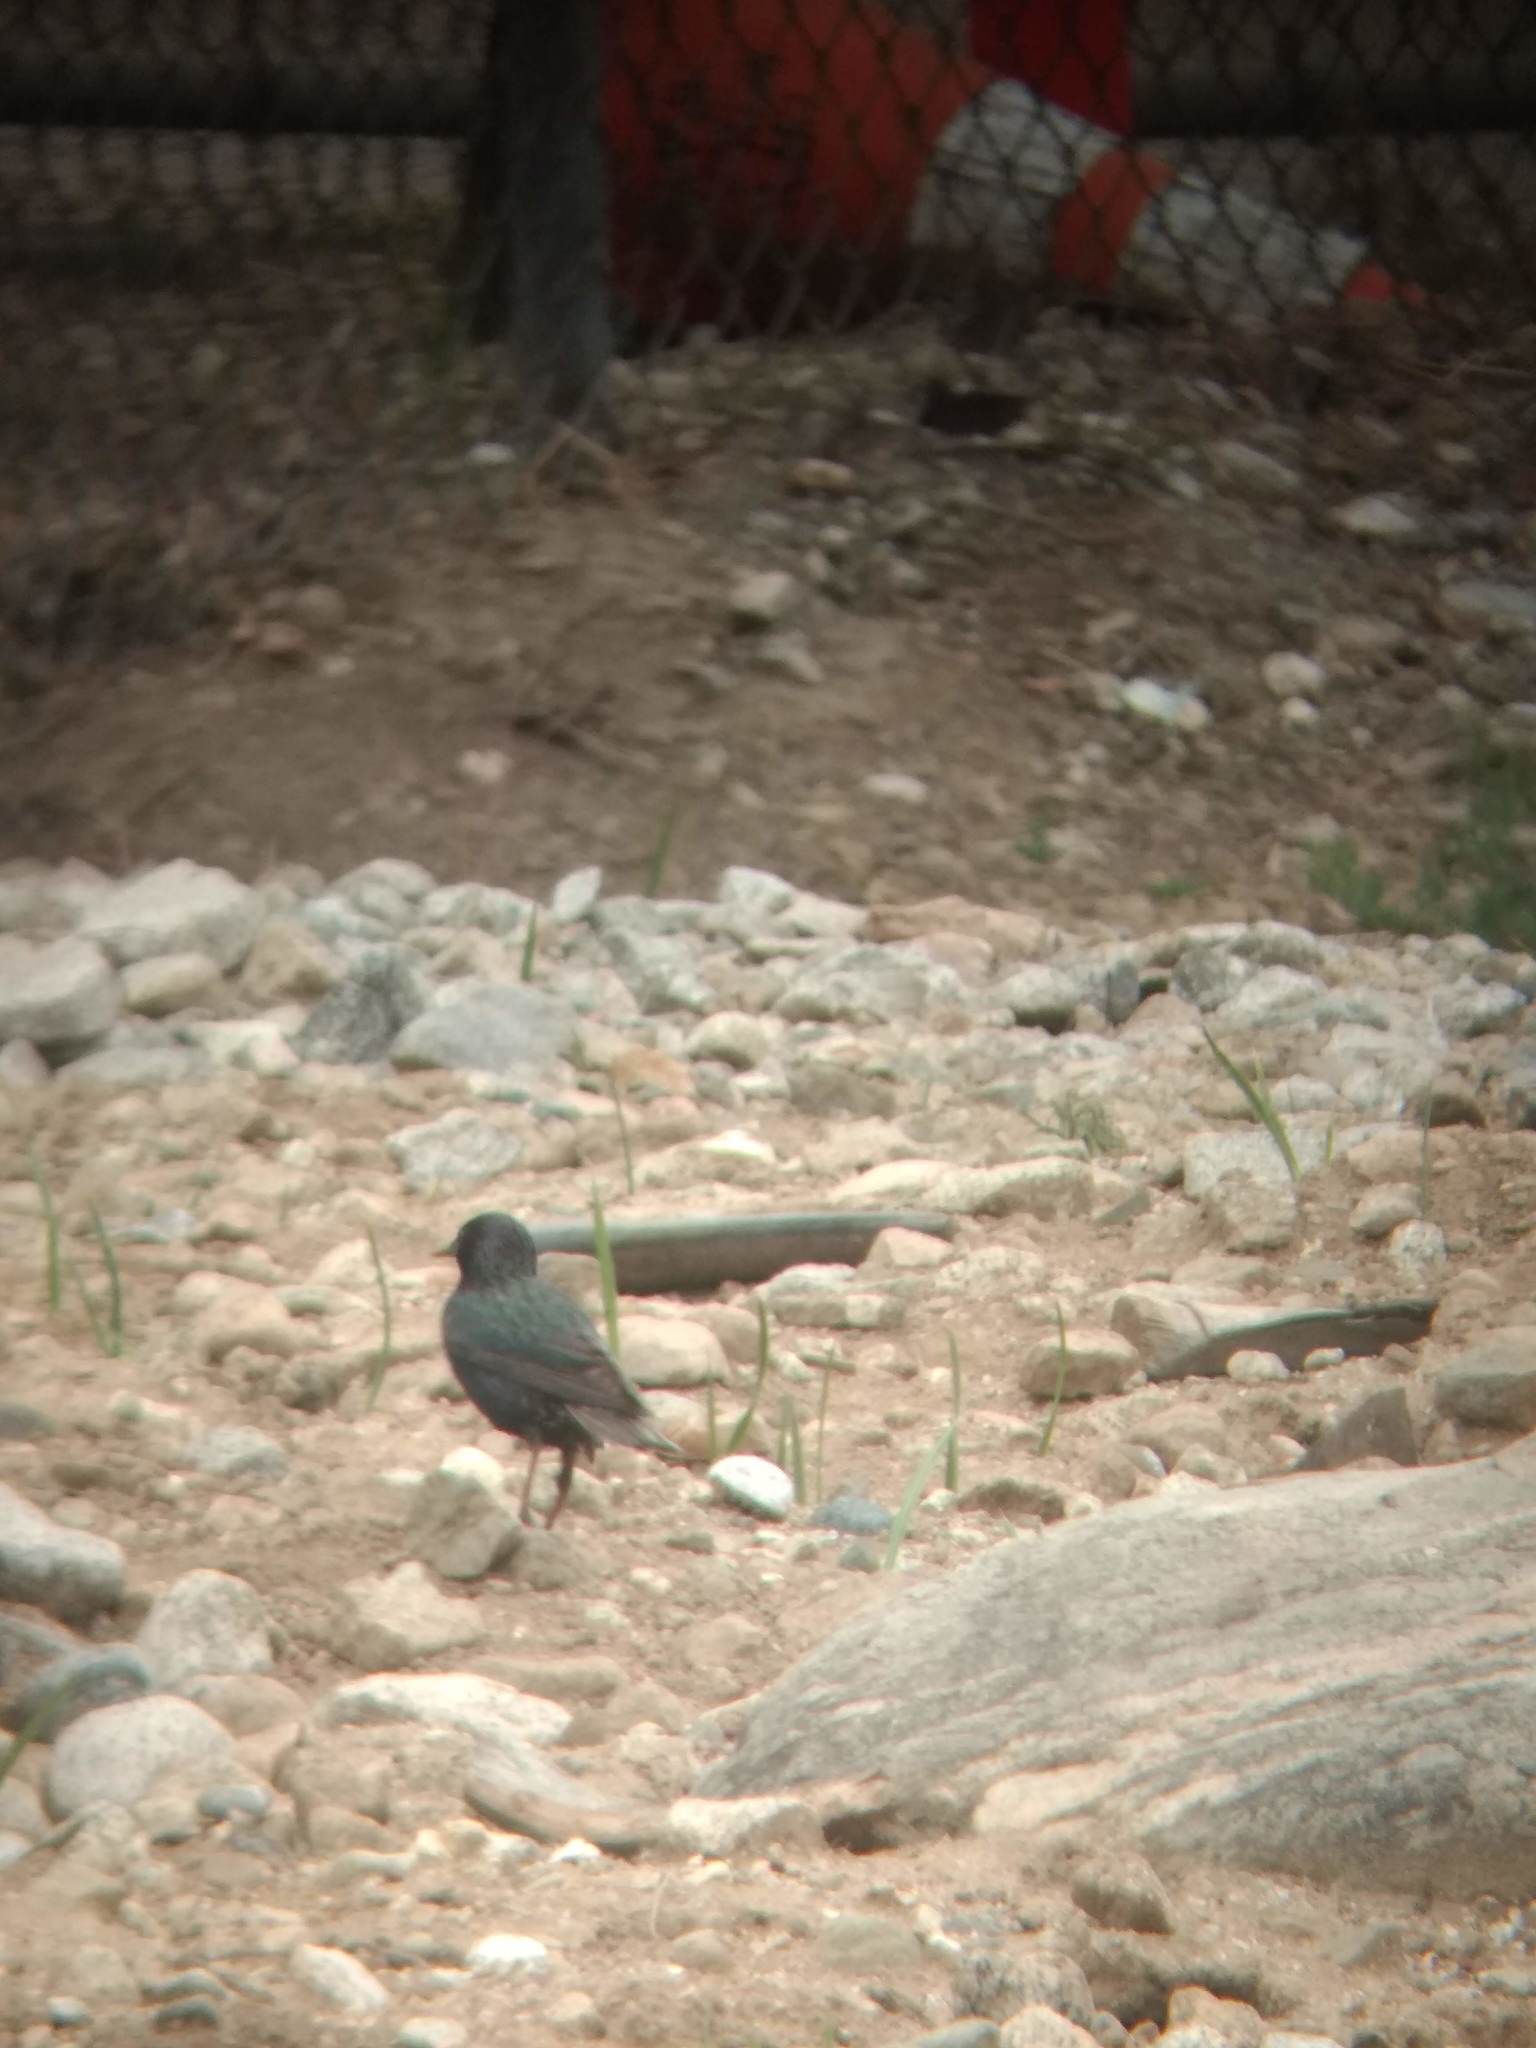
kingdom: Animalia
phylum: Chordata
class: Aves
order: Passeriformes
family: Sturnidae
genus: Sturnus
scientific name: Sturnus vulgaris
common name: Common starling
